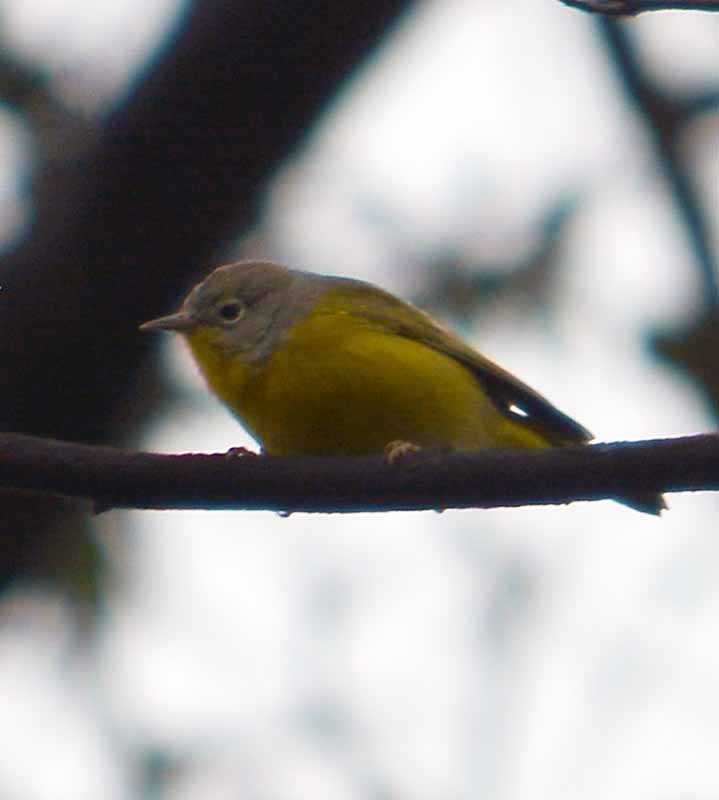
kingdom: Animalia
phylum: Chordata
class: Aves
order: Passeriformes
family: Parulidae
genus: Leiothlypis
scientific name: Leiothlypis ruficapilla
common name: Nashville warbler
